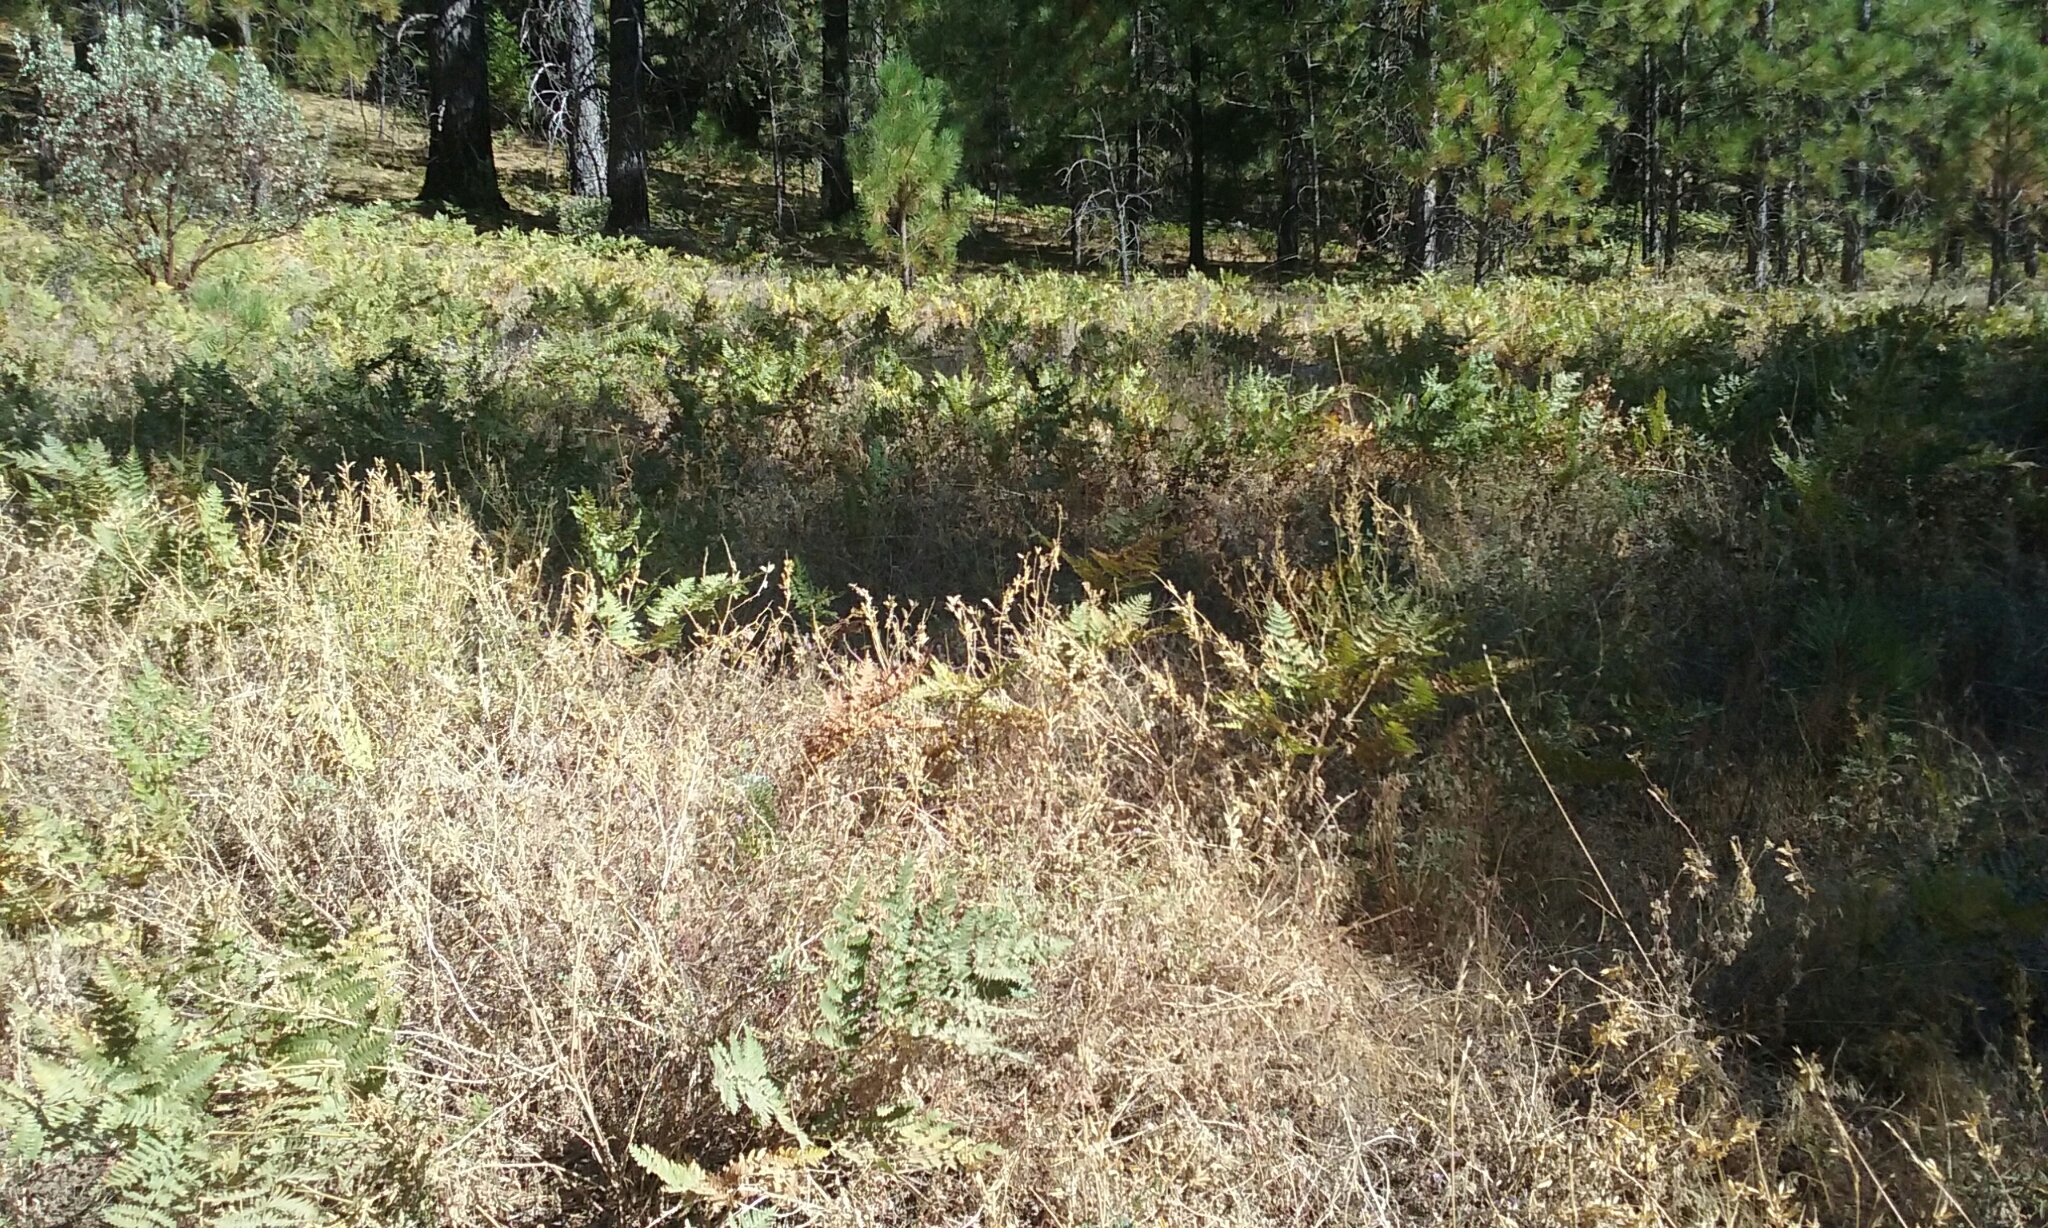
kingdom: Plantae
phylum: Tracheophyta
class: Polypodiopsida
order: Polypodiales
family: Dennstaedtiaceae
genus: Pteridium
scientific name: Pteridium aquilinum
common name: Bracken
